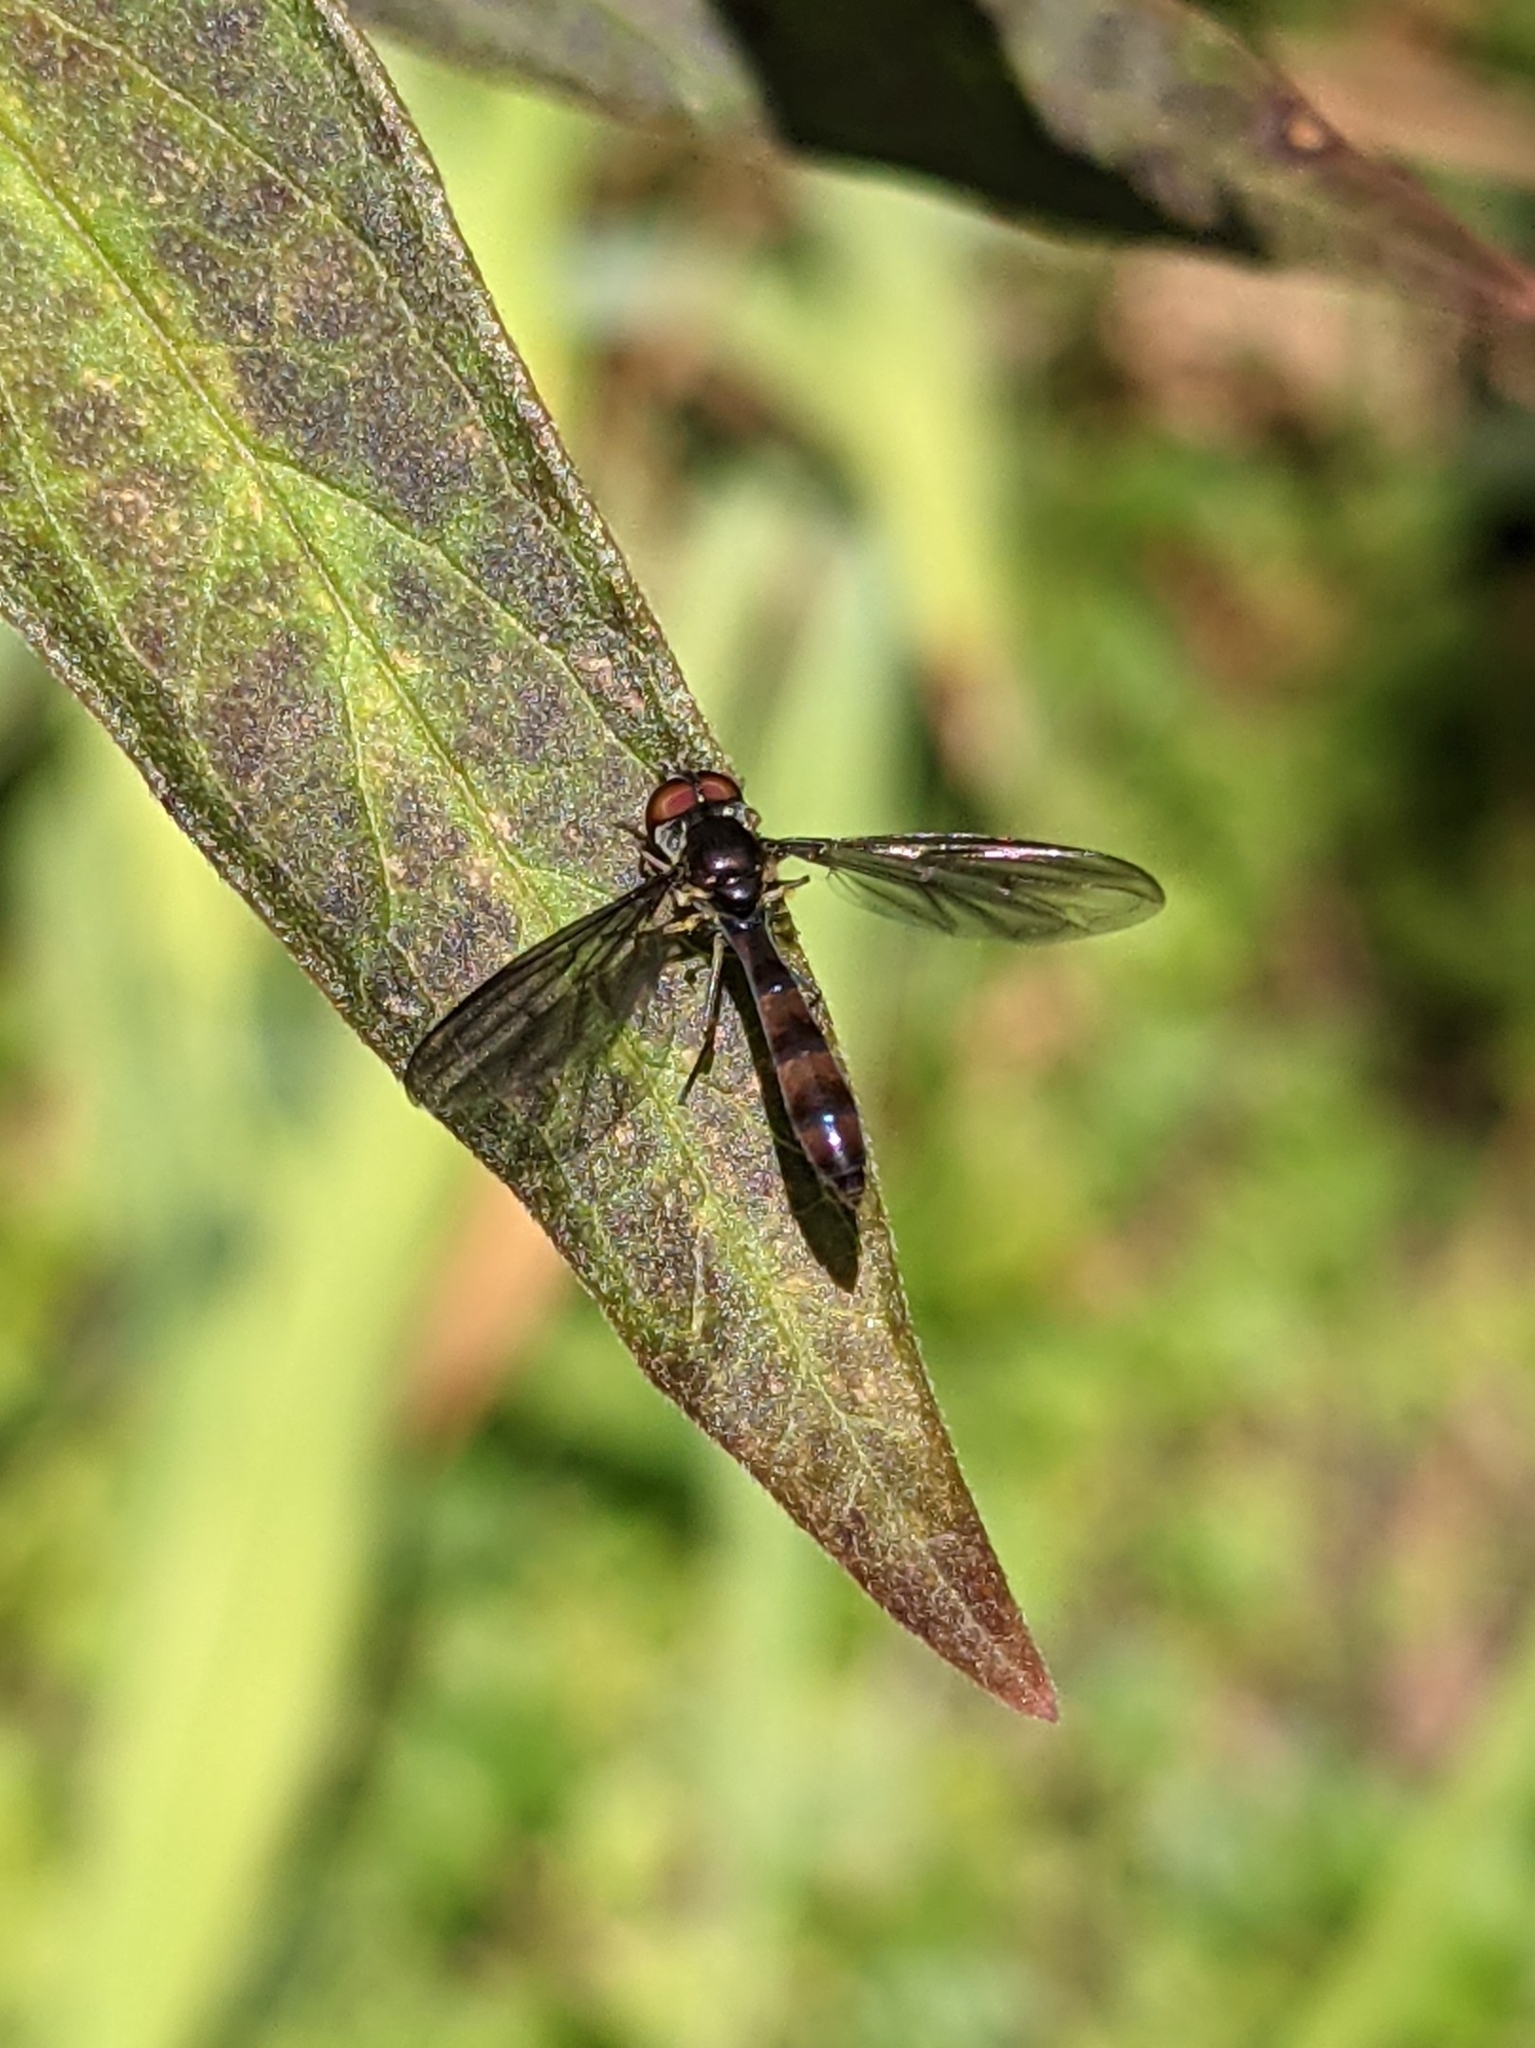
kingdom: Animalia
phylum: Arthropoda
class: Insecta
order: Diptera
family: Syrphidae
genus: Ocyptamus
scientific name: Ocyptamus fuscipennis
